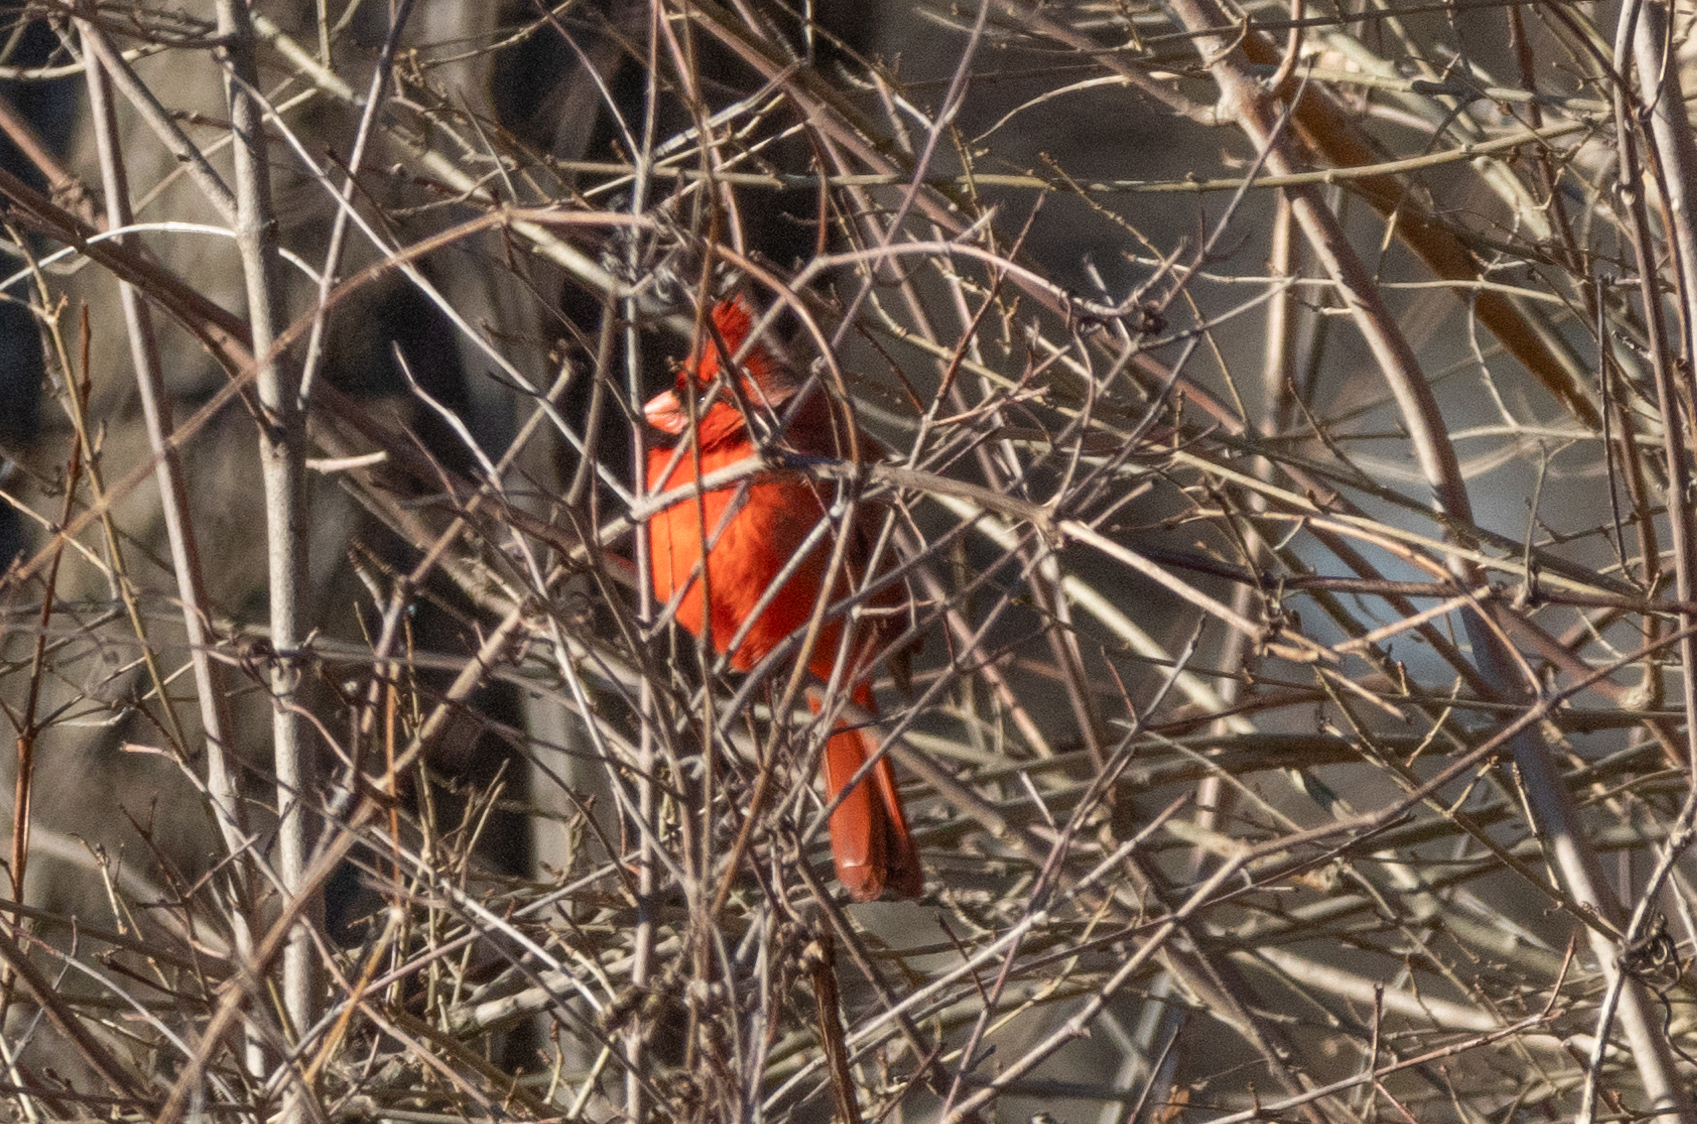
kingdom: Animalia
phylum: Chordata
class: Aves
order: Passeriformes
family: Cardinalidae
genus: Cardinalis
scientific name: Cardinalis cardinalis
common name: Northern cardinal
